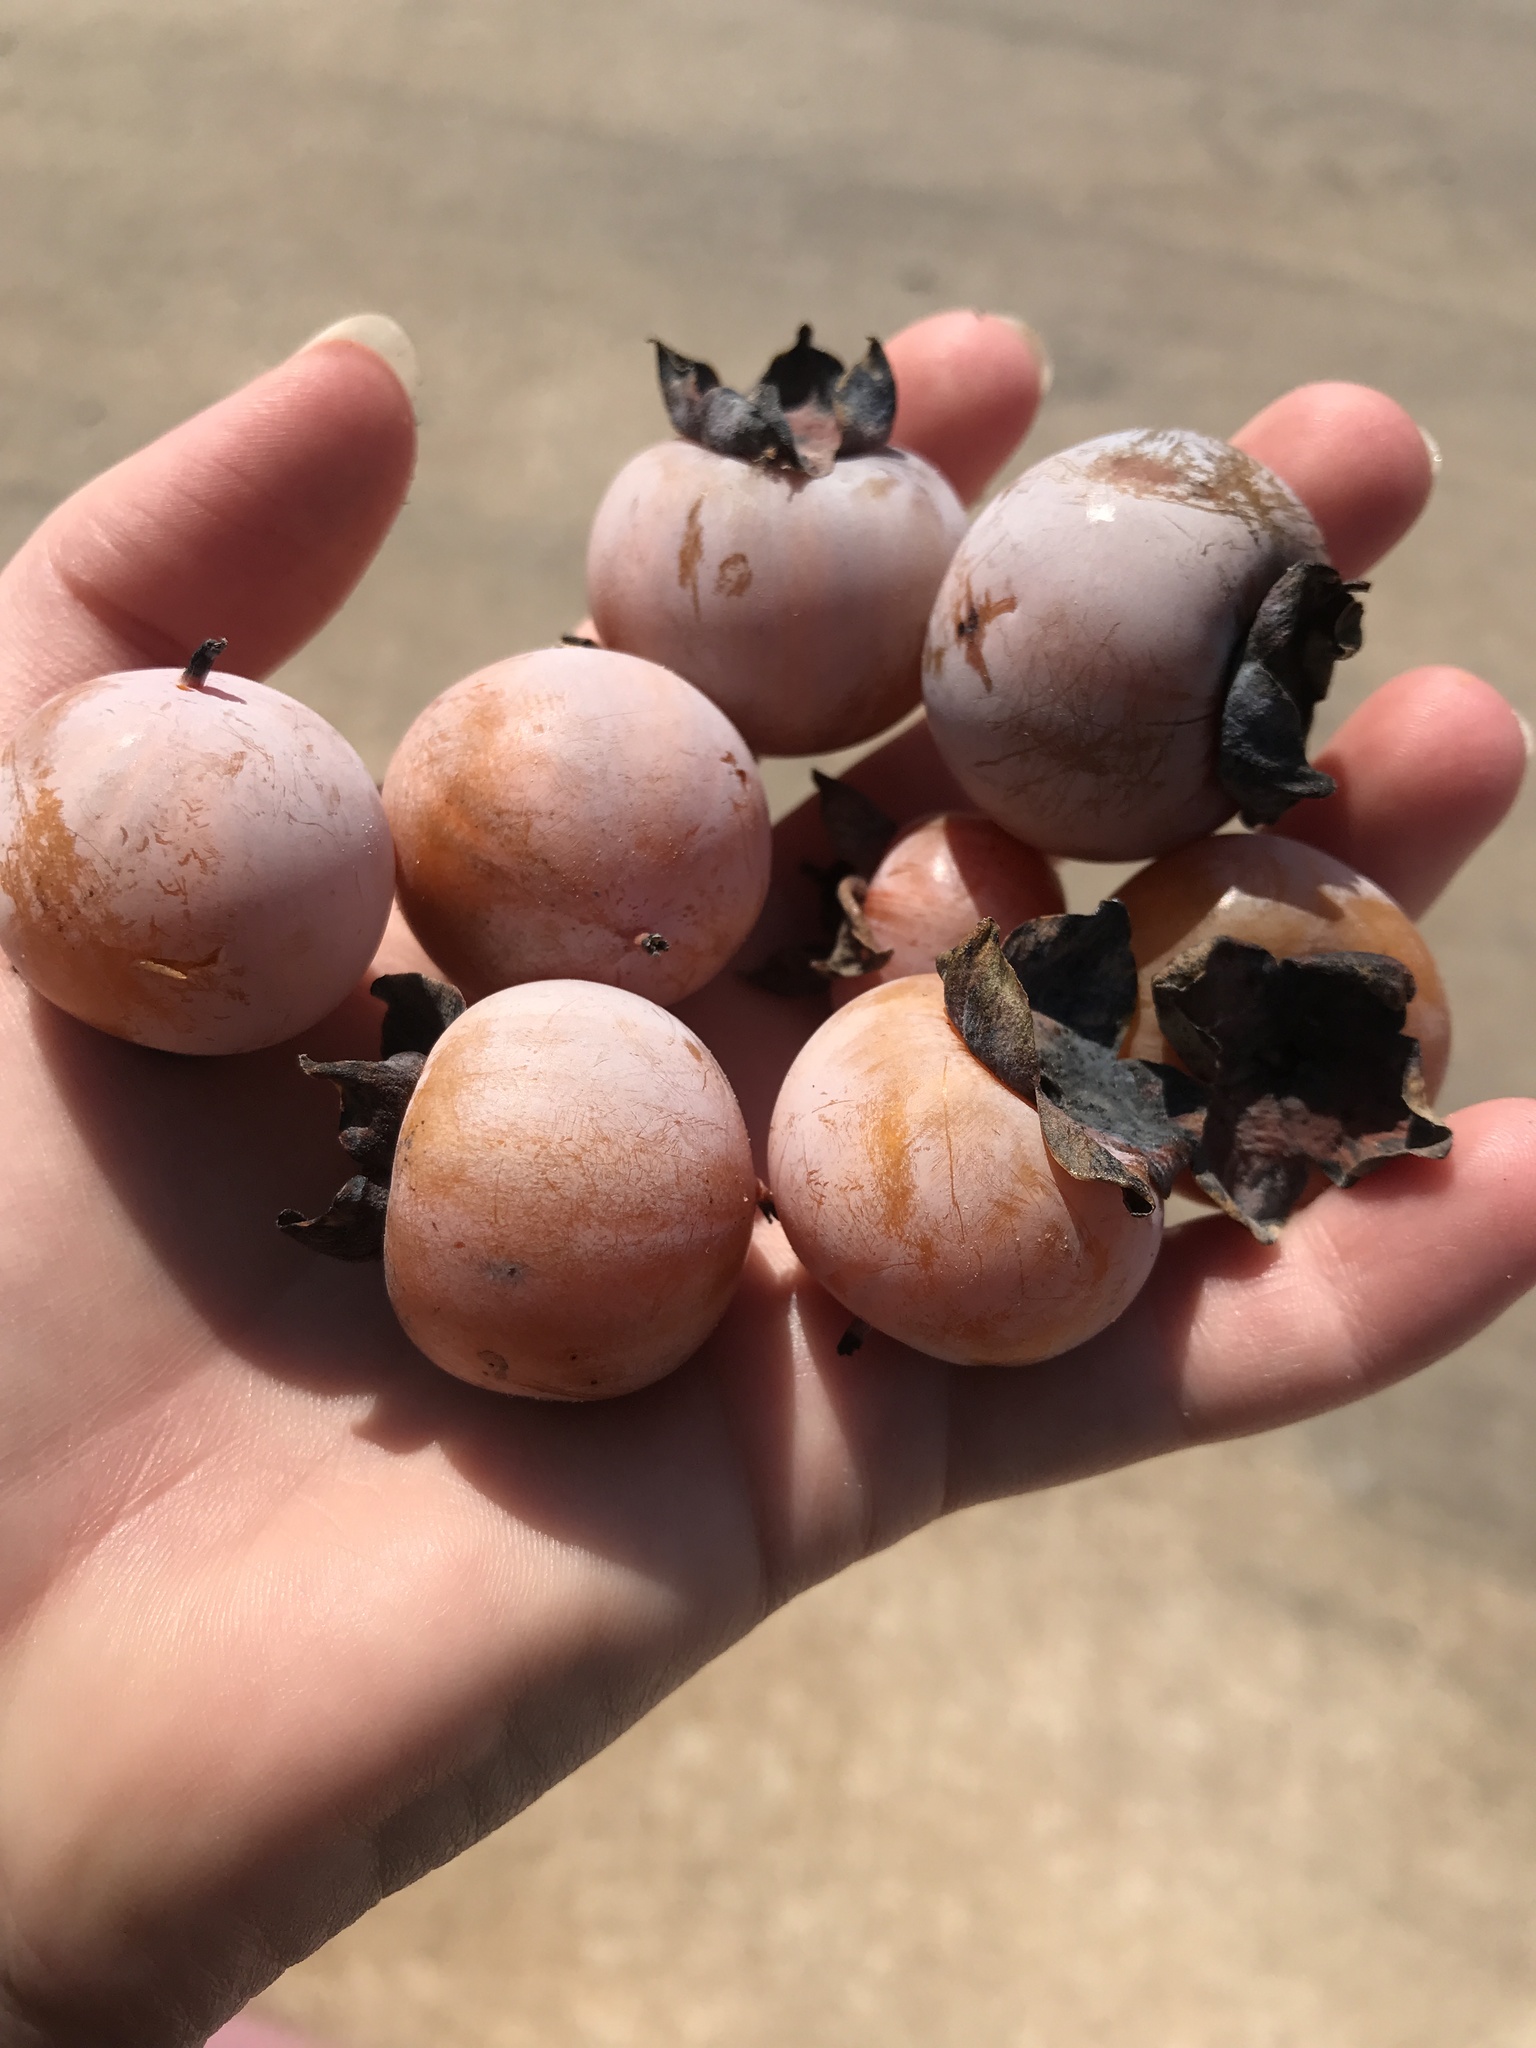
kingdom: Plantae
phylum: Tracheophyta
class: Magnoliopsida
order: Ericales
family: Ebenaceae
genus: Diospyros
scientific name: Diospyros virginiana
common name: Persimmon
